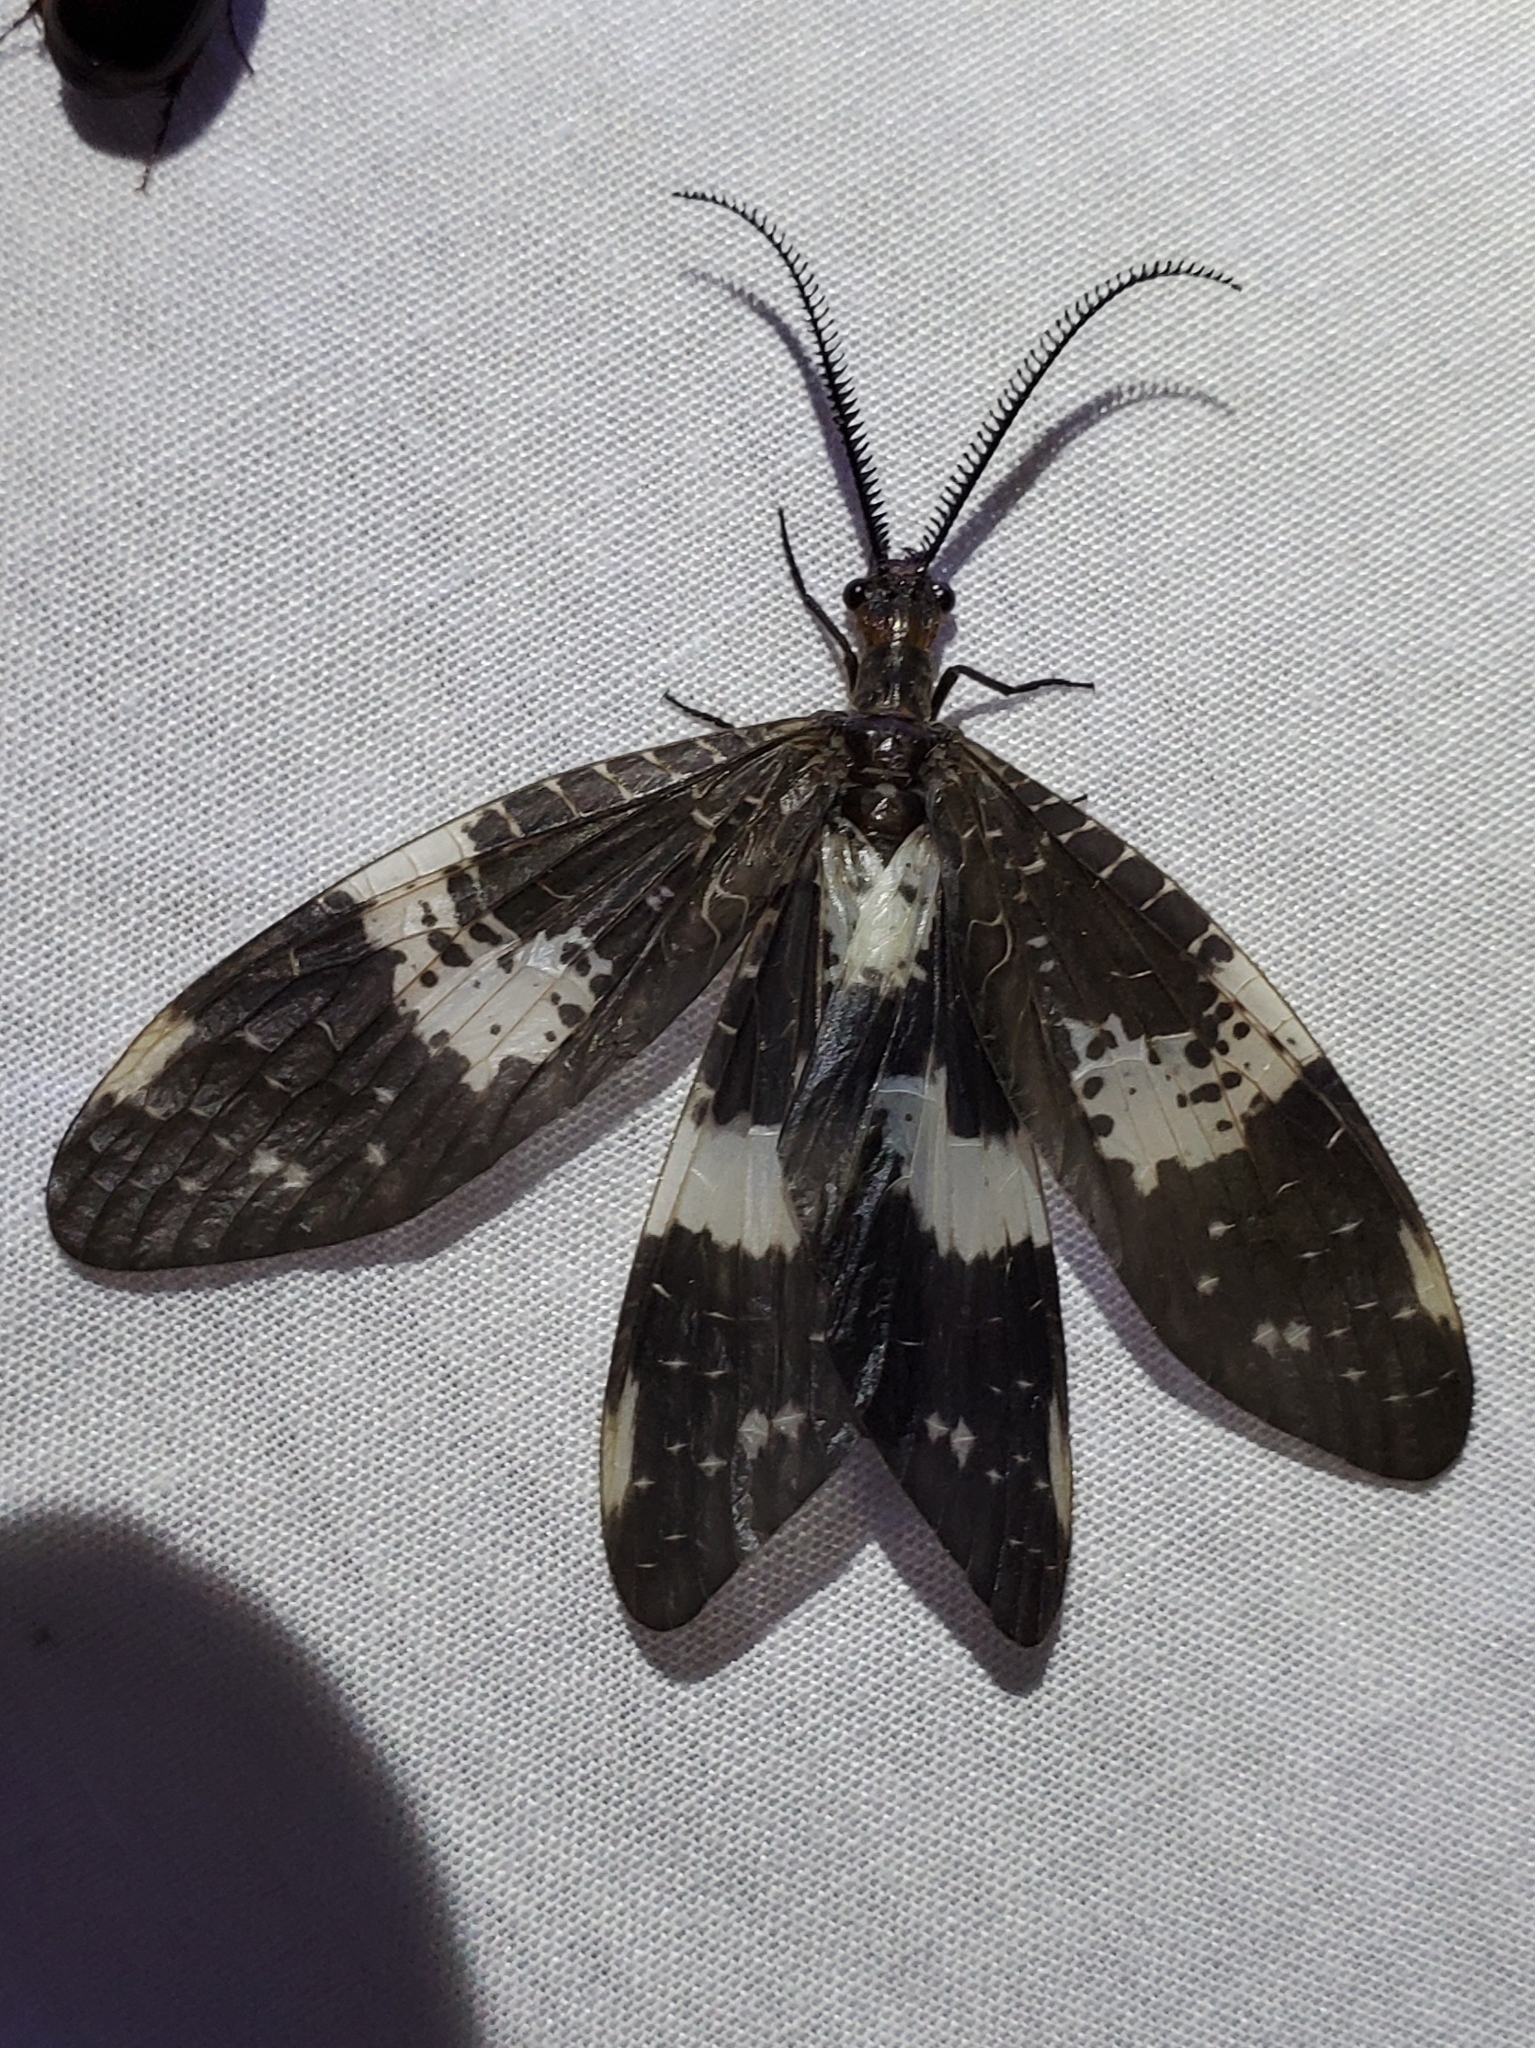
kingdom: Animalia
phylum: Arthropoda
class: Insecta
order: Megaloptera
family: Corydalidae
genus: Nigronia
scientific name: Nigronia fasciata
